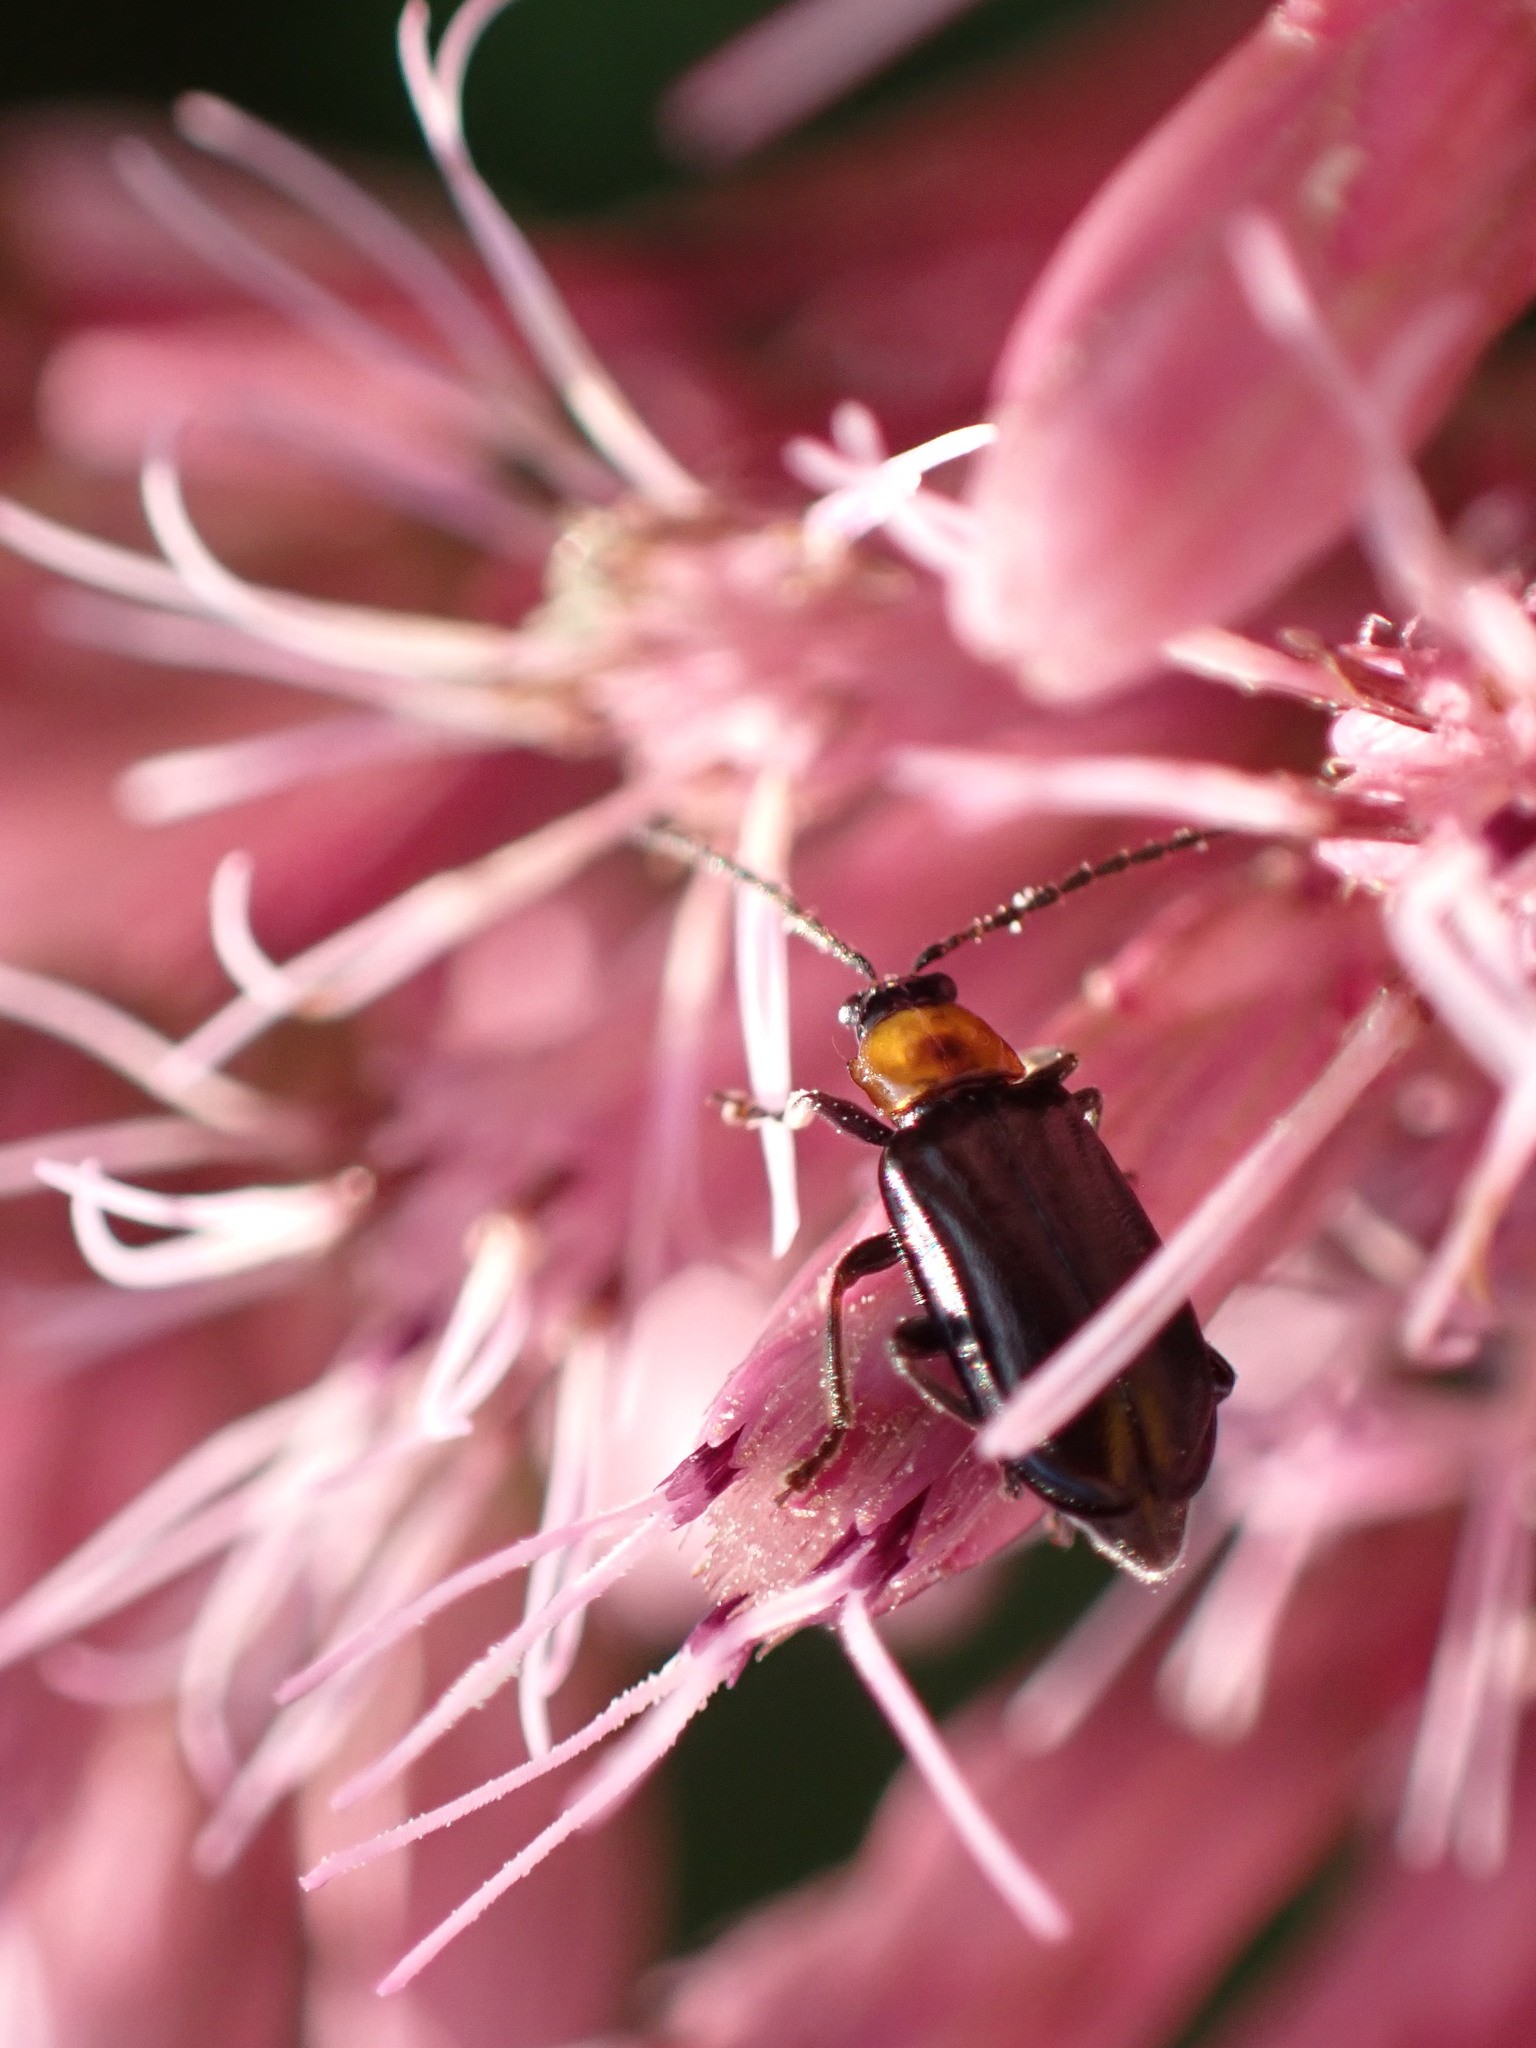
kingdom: Animalia
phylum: Arthropoda
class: Insecta
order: Coleoptera
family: Chrysomelidae
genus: Diabrotica
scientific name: Diabrotica cristata
